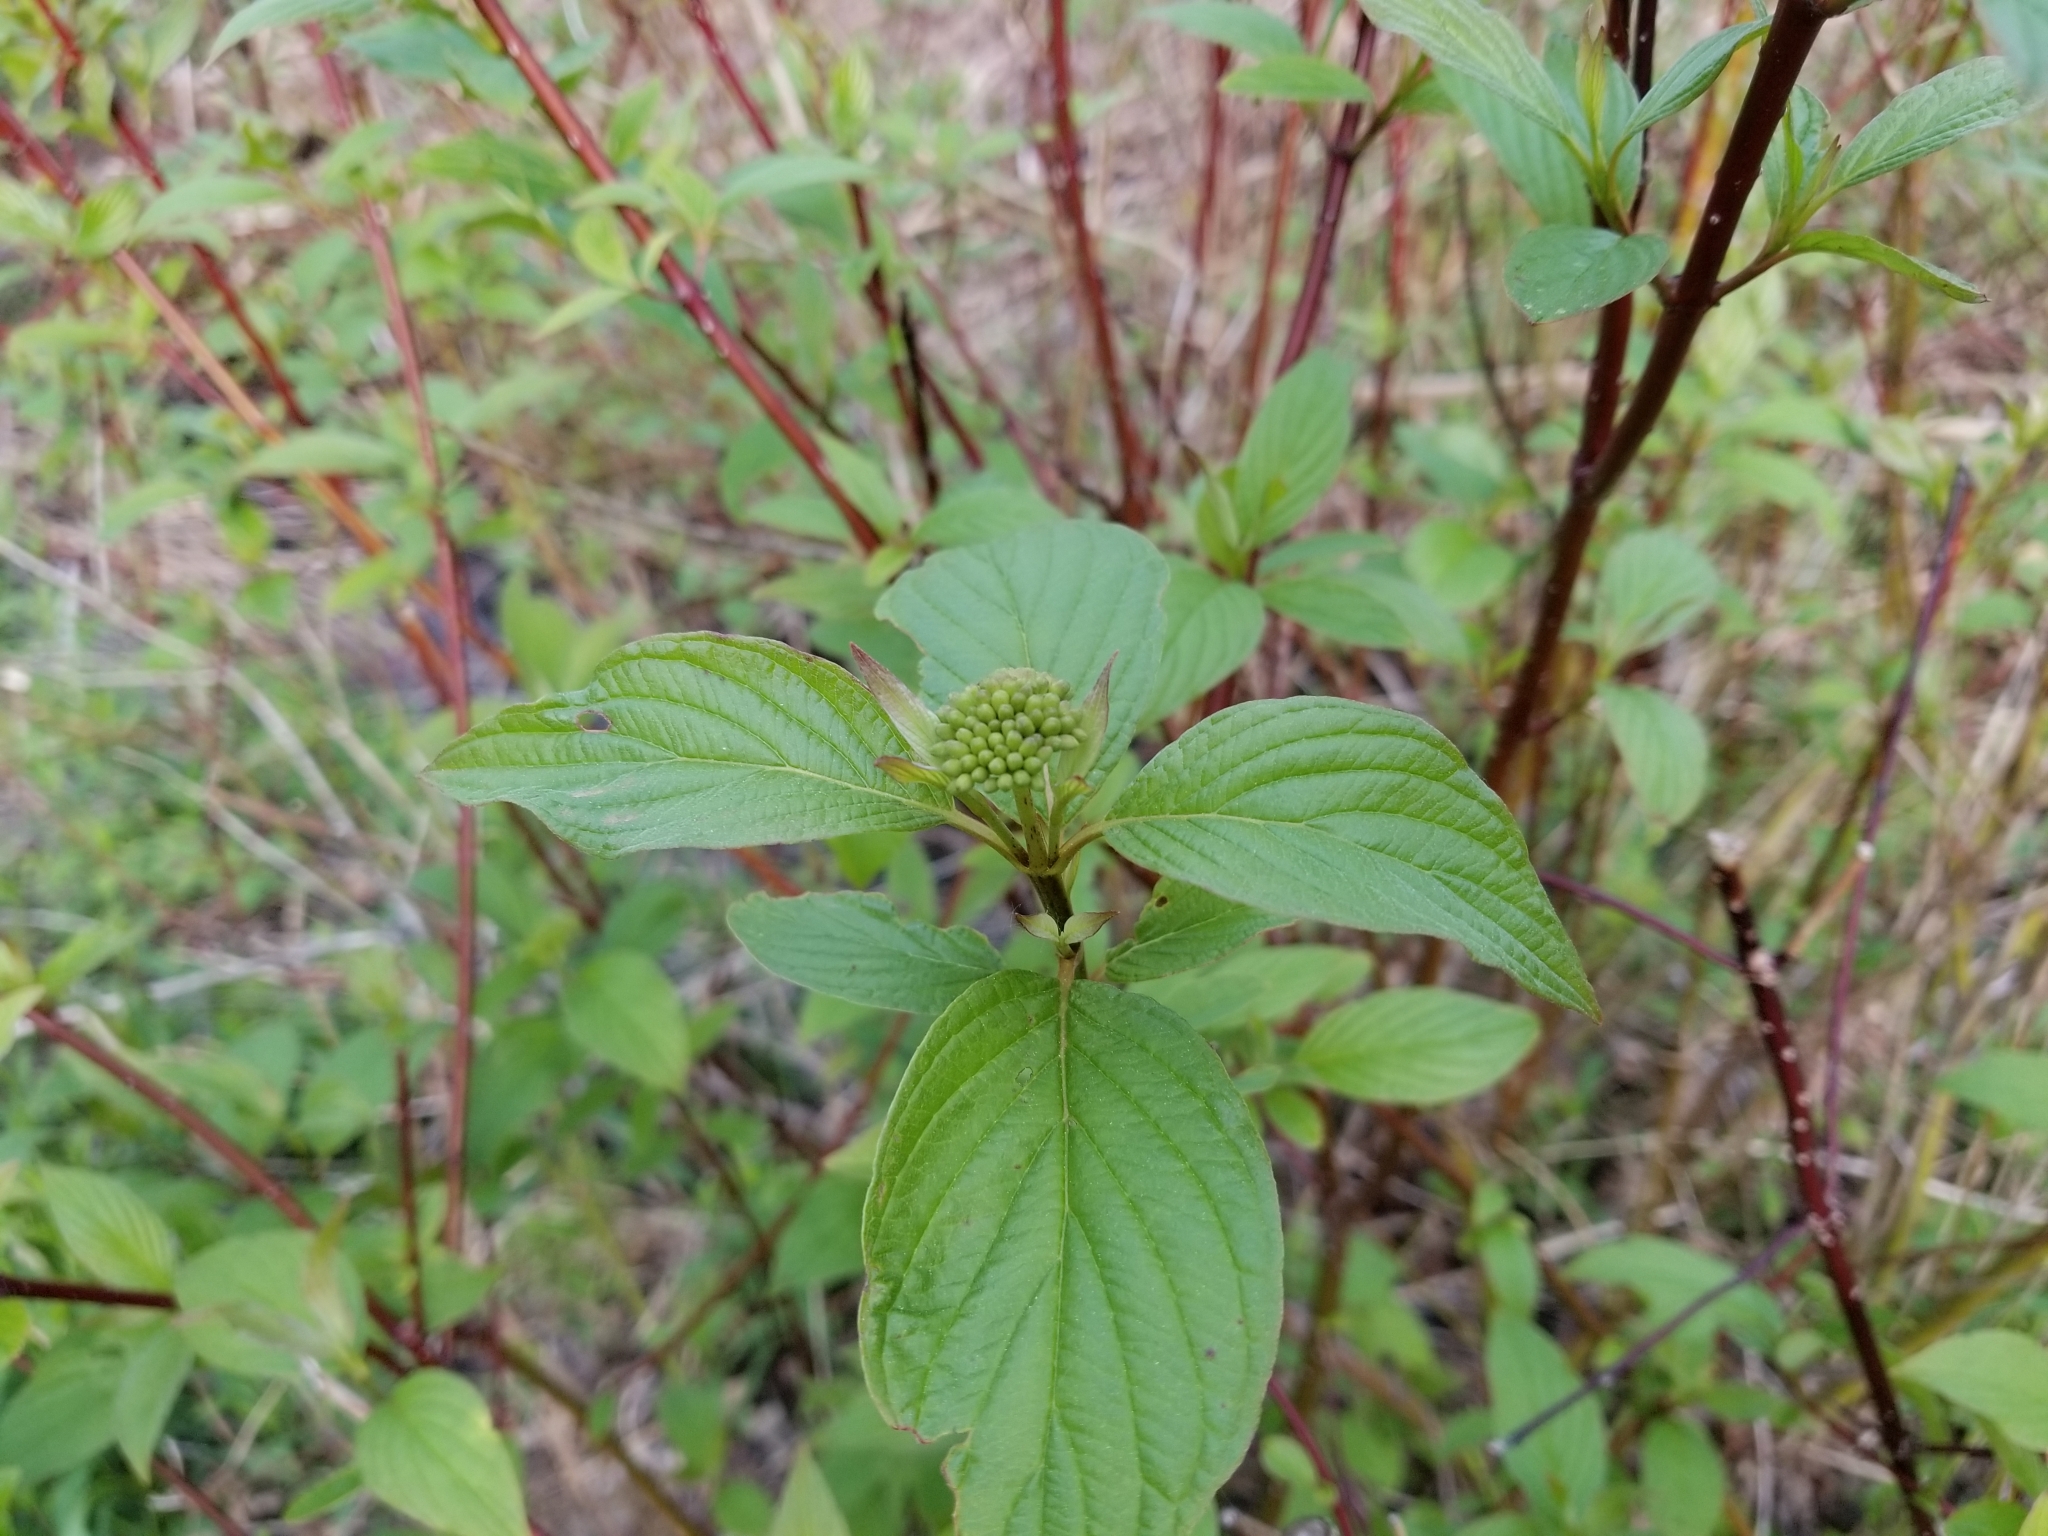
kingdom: Plantae
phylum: Tracheophyta
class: Magnoliopsida
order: Cornales
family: Cornaceae
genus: Cornus
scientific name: Cornus sericea
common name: Red-osier dogwood
